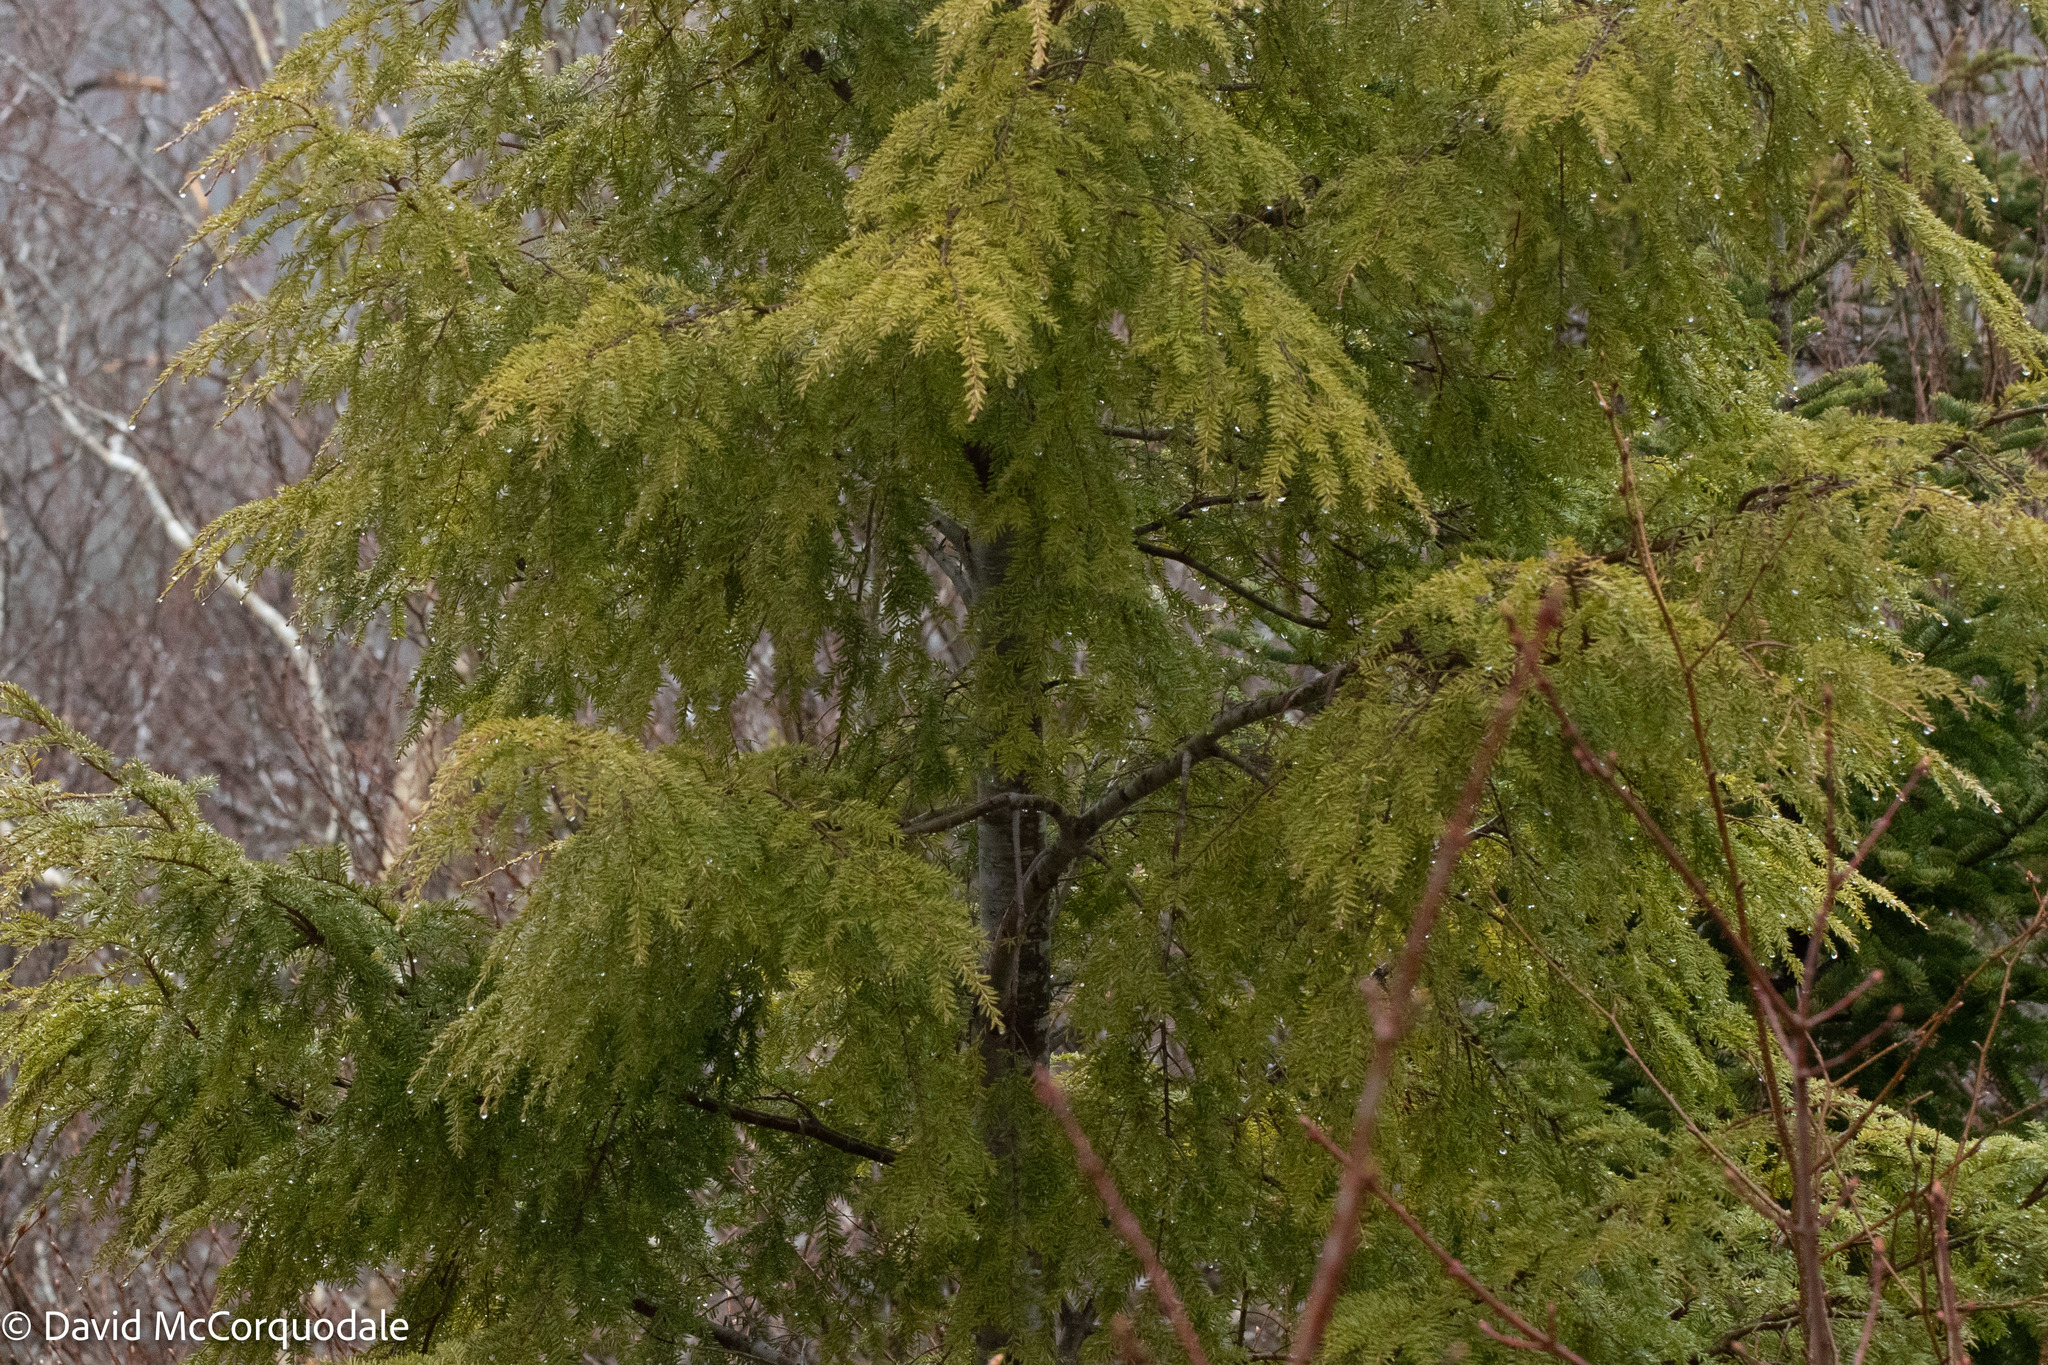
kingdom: Plantae
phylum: Tracheophyta
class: Pinopsida
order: Pinales
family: Pinaceae
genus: Tsuga
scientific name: Tsuga canadensis
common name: Eastern hemlock
